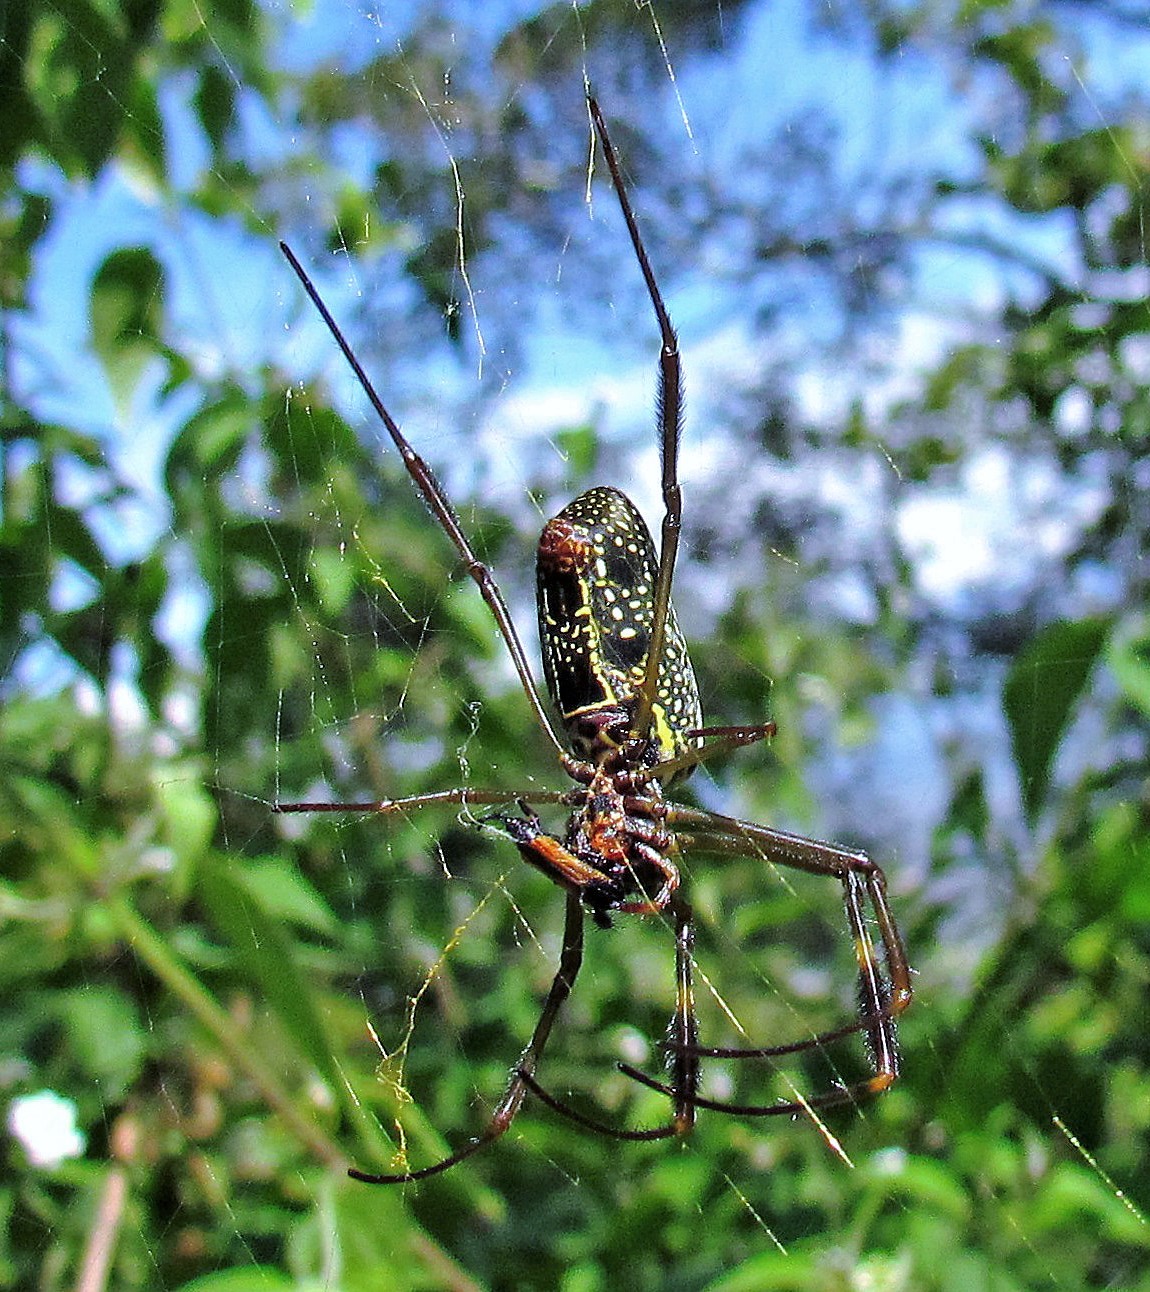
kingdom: Animalia
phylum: Arthropoda
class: Arachnida
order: Araneae
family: Araneidae
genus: Trichonephila
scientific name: Trichonephila clavipes
